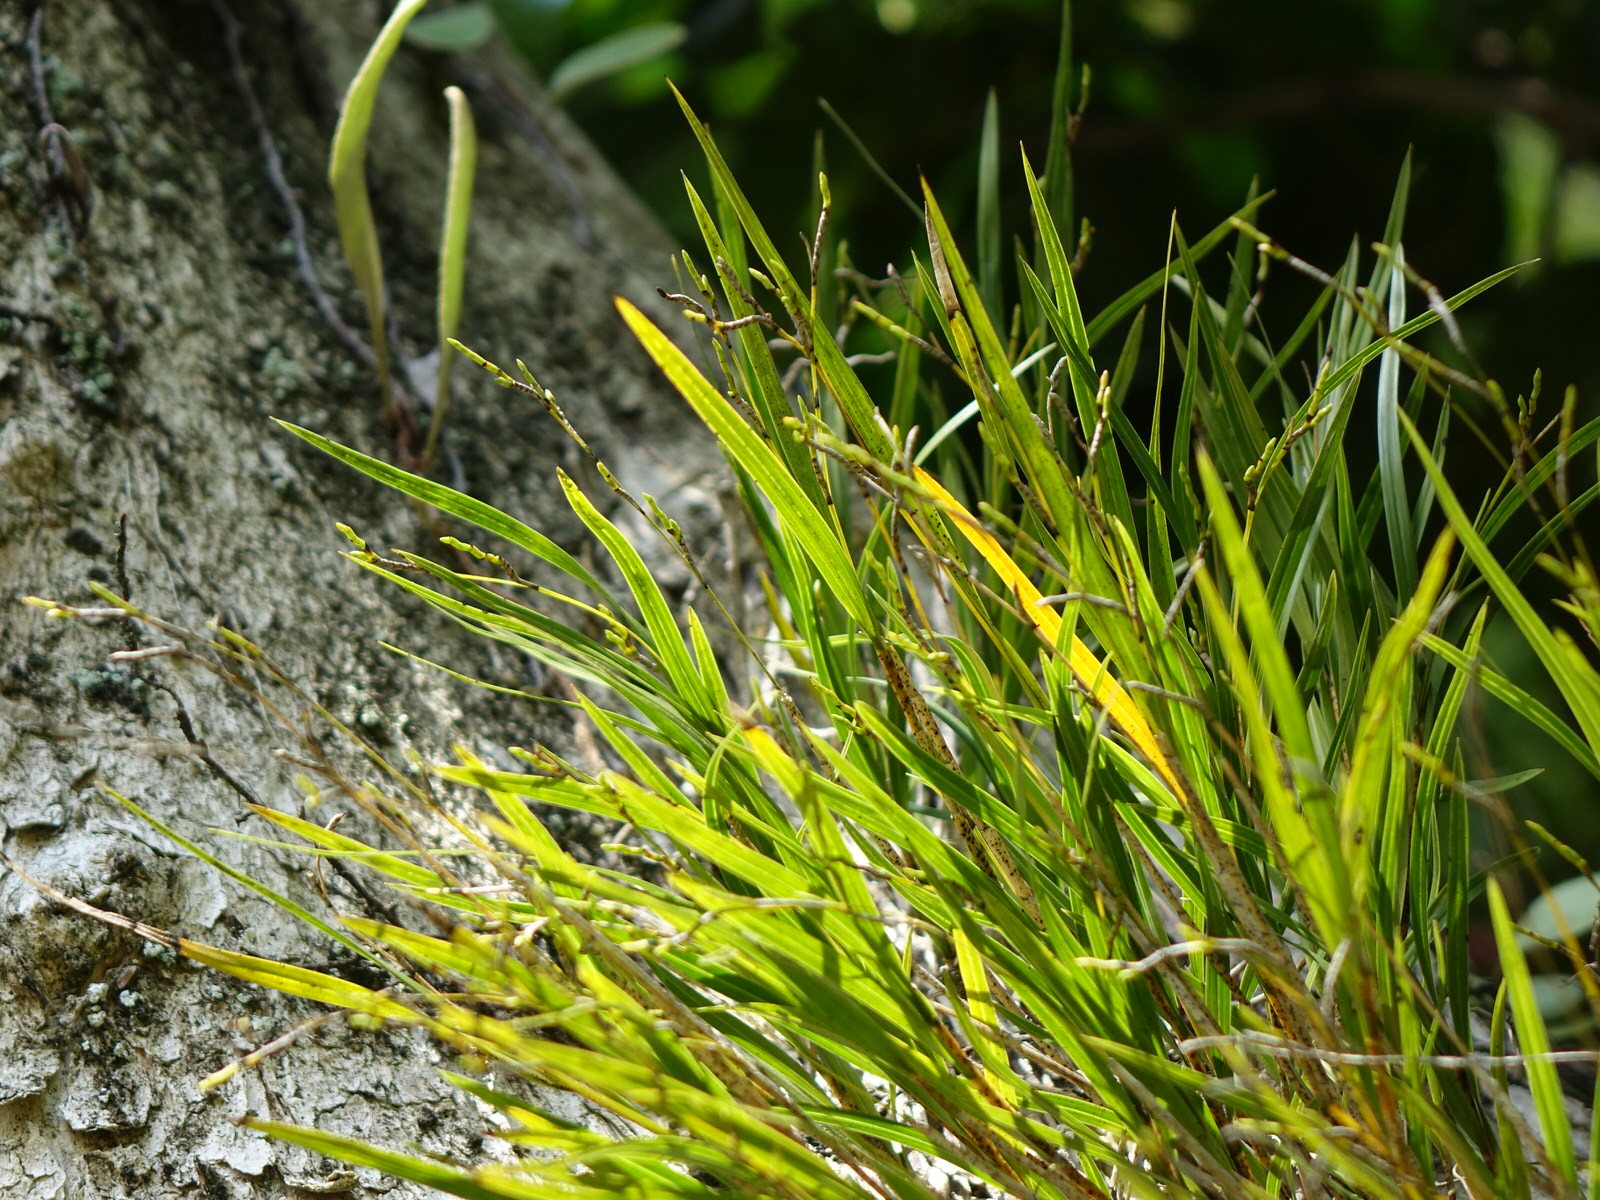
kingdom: Plantae
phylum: Tracheophyta
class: Liliopsida
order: Asparagales
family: Orchidaceae
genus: Earina
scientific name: Earina mucronata
